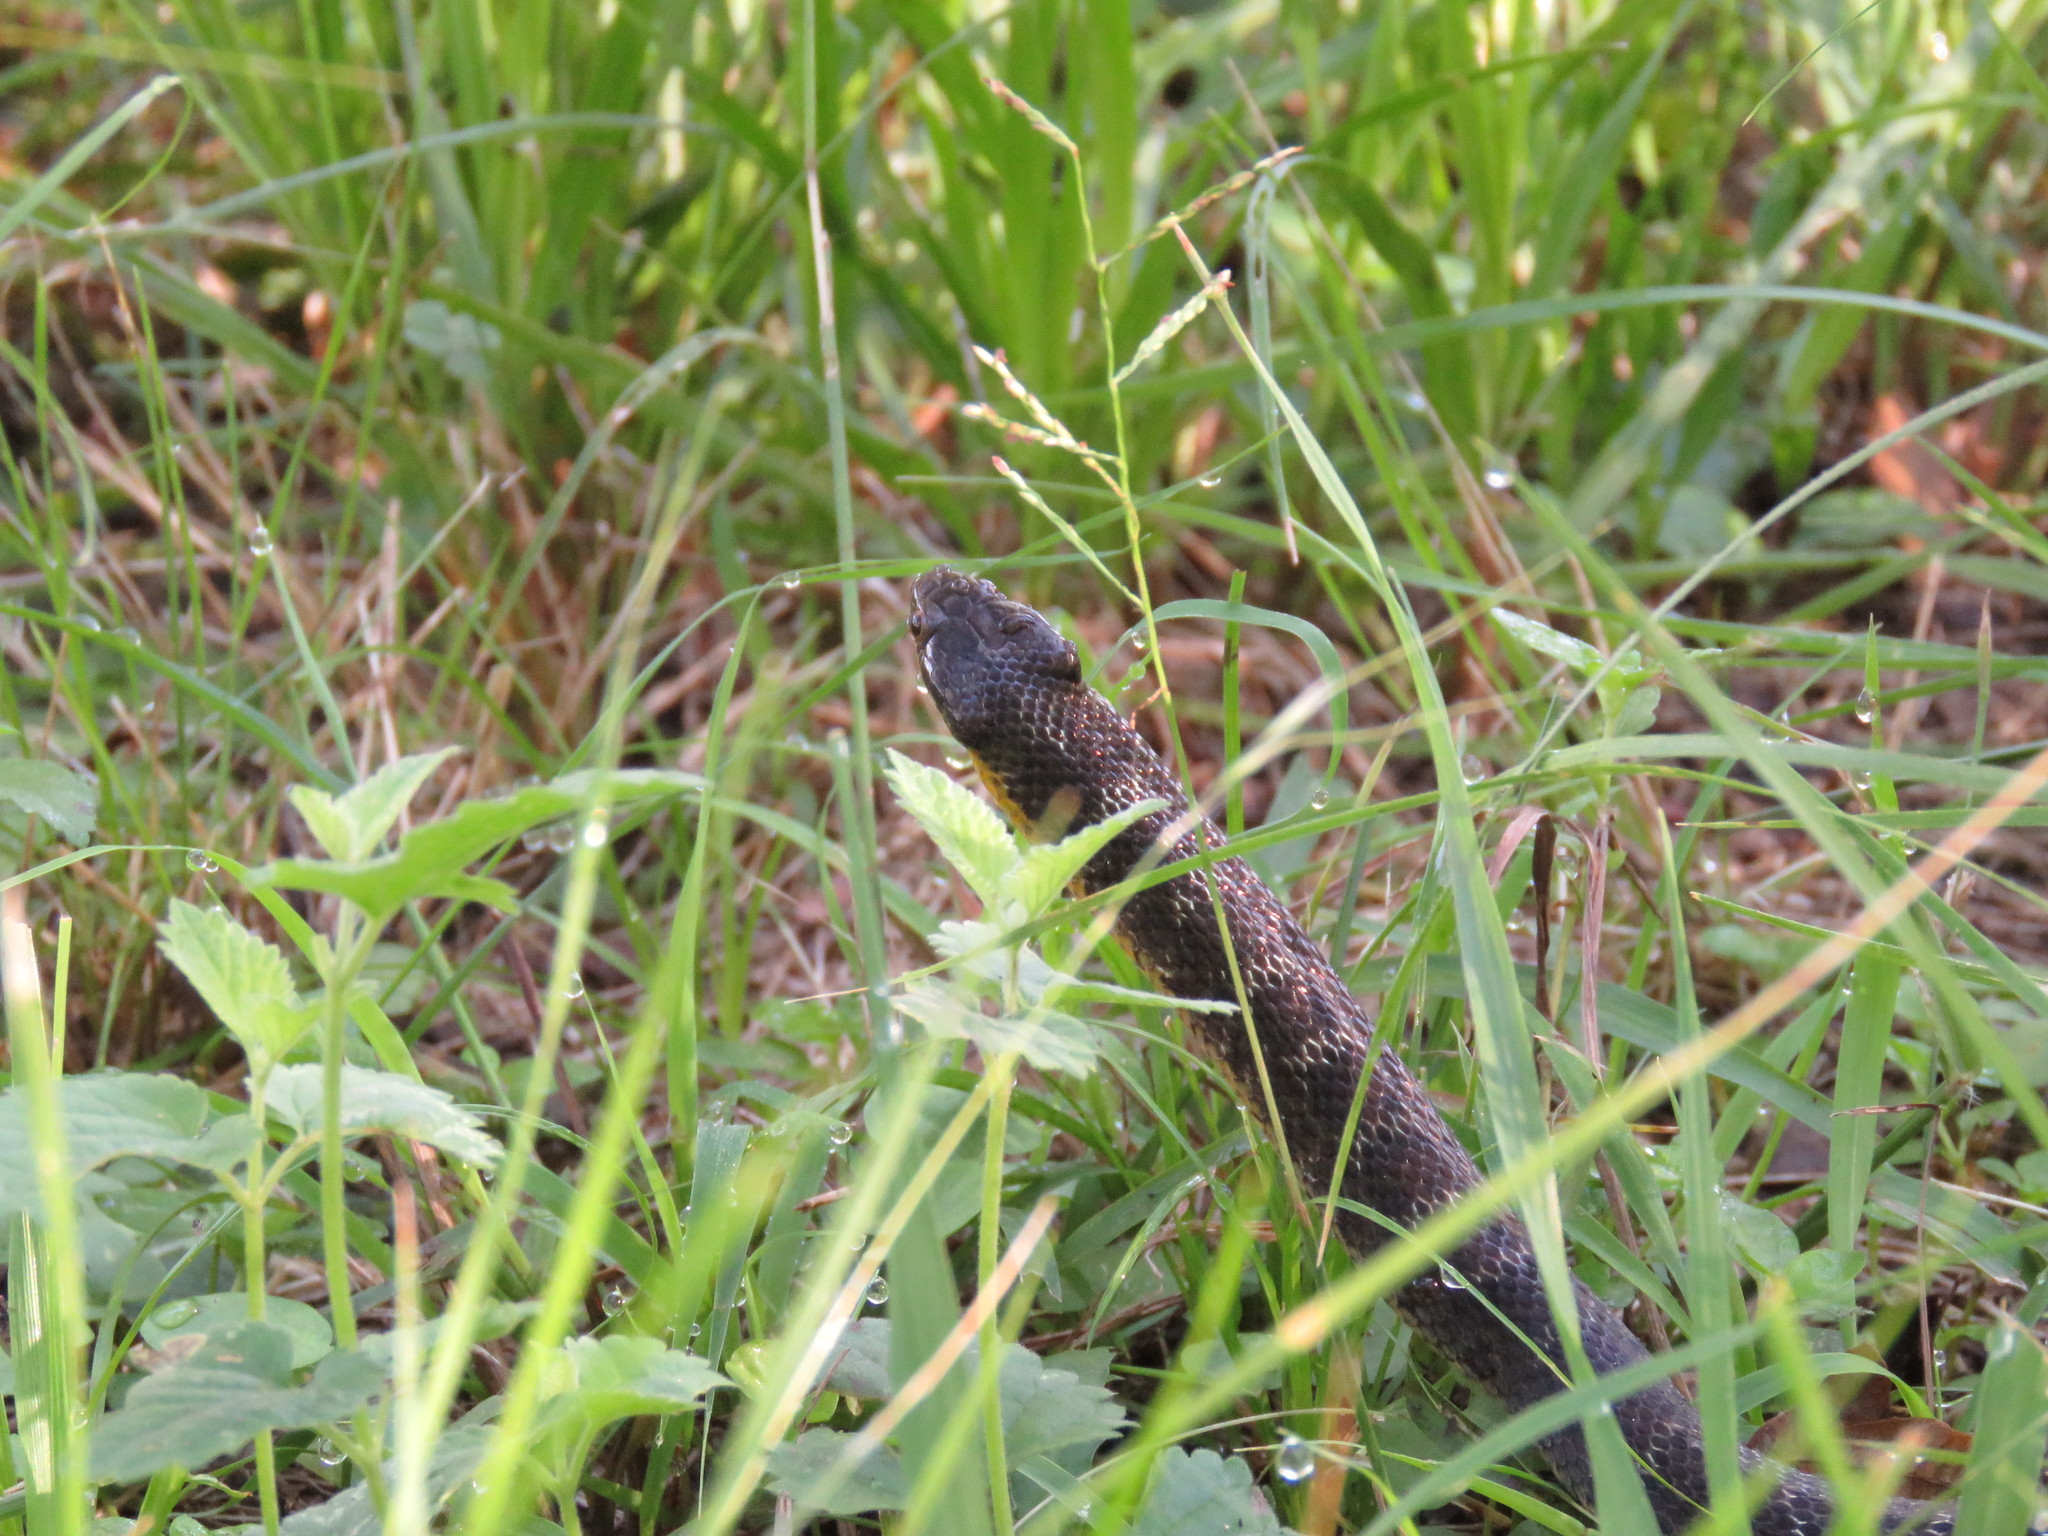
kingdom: Animalia
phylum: Chordata
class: Squamata
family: Colubridae
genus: Erythrolamprus
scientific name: Erythrolamprus poecilogyrus
